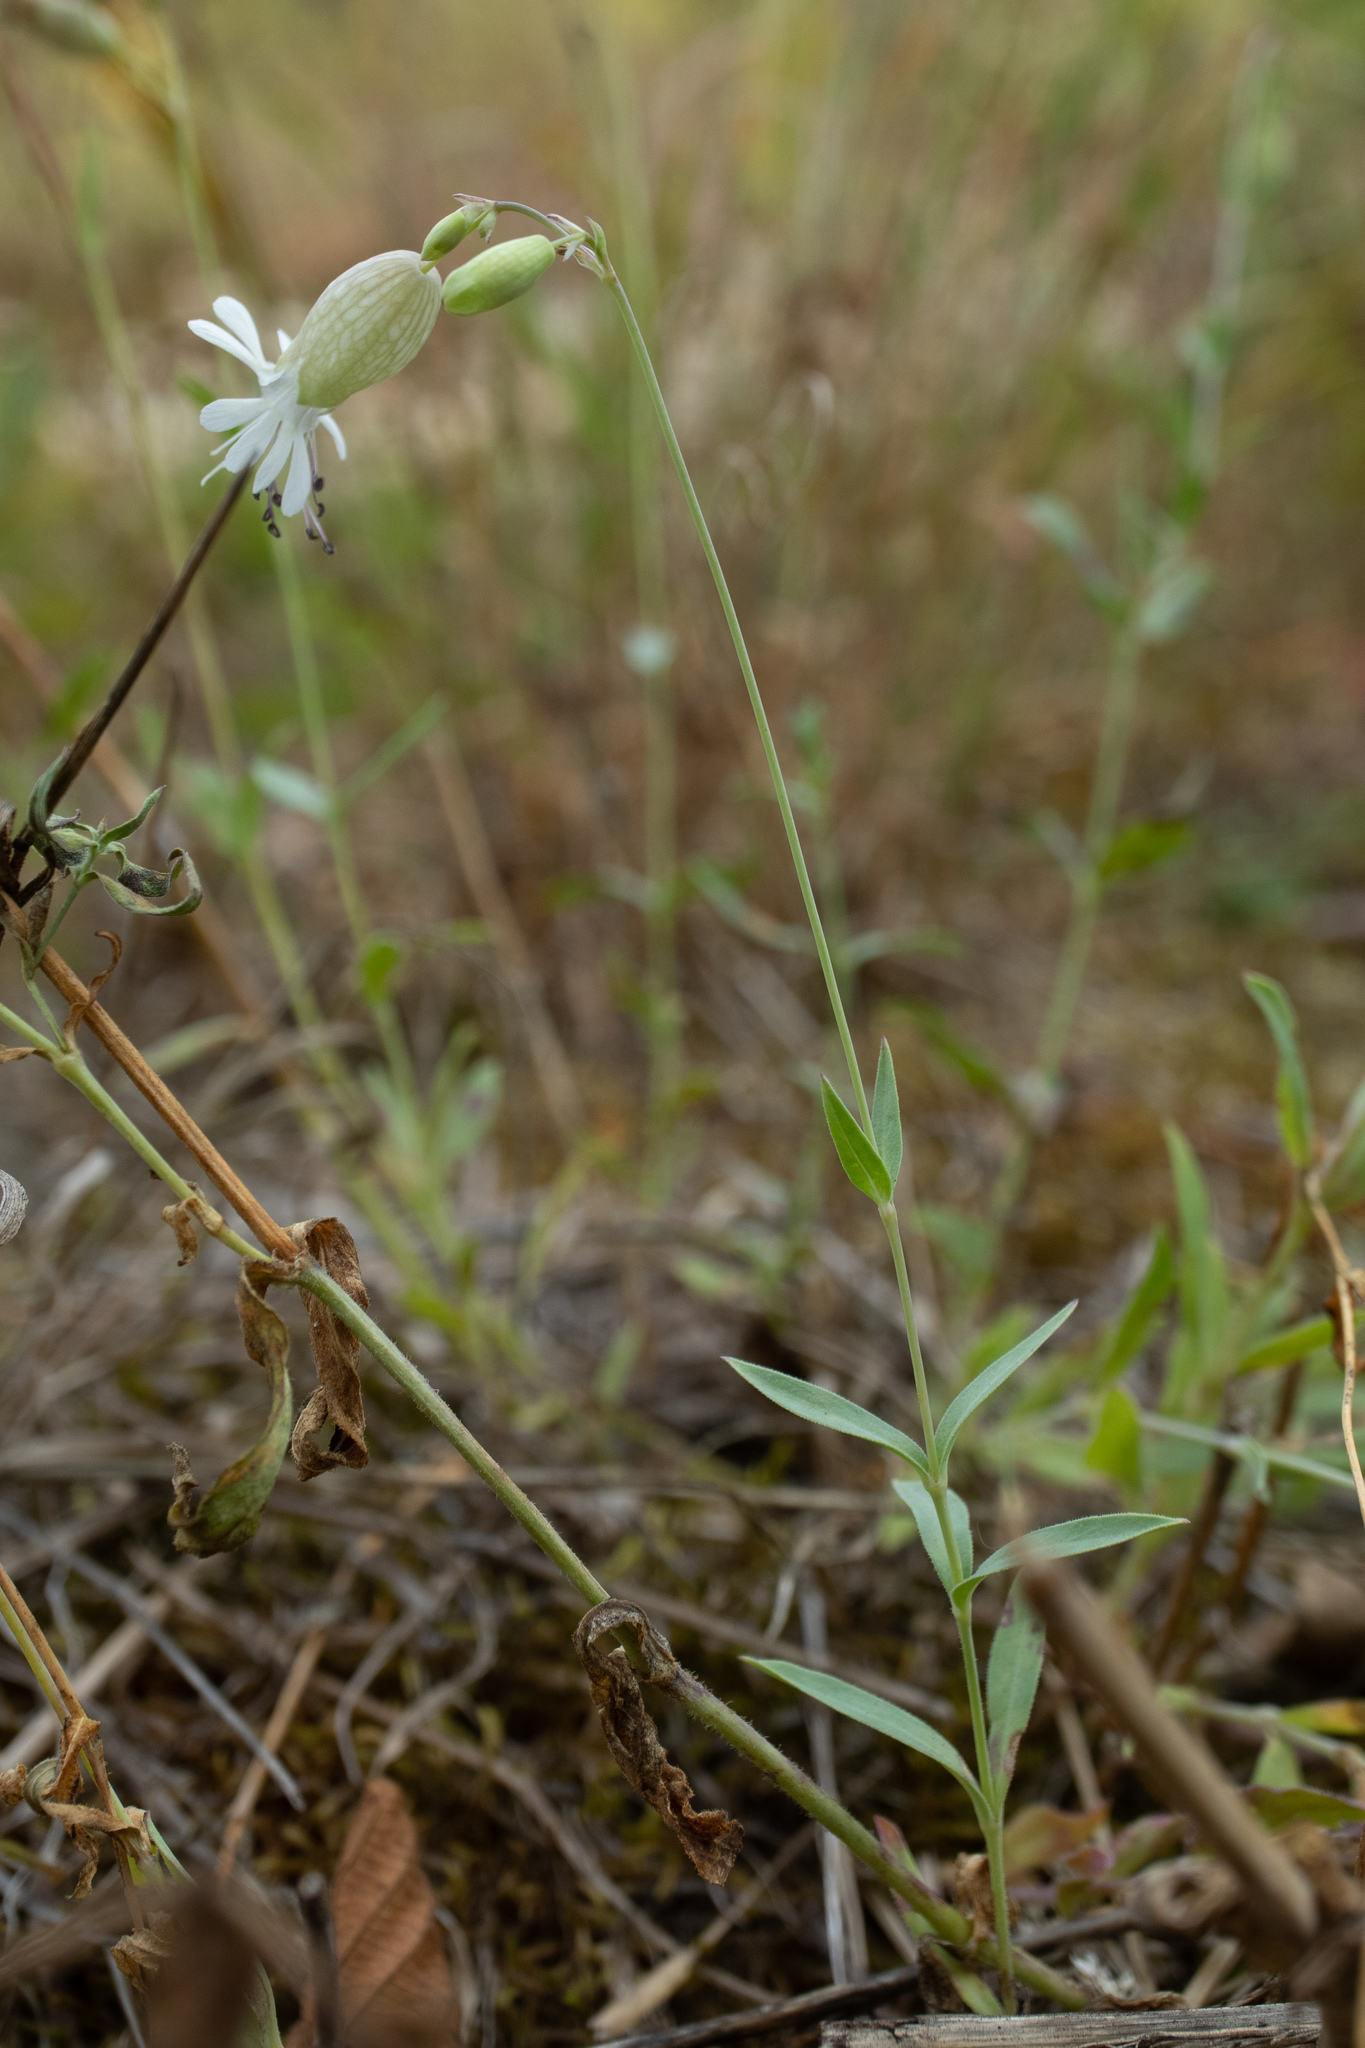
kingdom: Plantae
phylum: Tracheophyta
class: Magnoliopsida
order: Caryophyllales
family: Caryophyllaceae
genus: Silene
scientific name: Silene vulgaris
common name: Bladder campion
